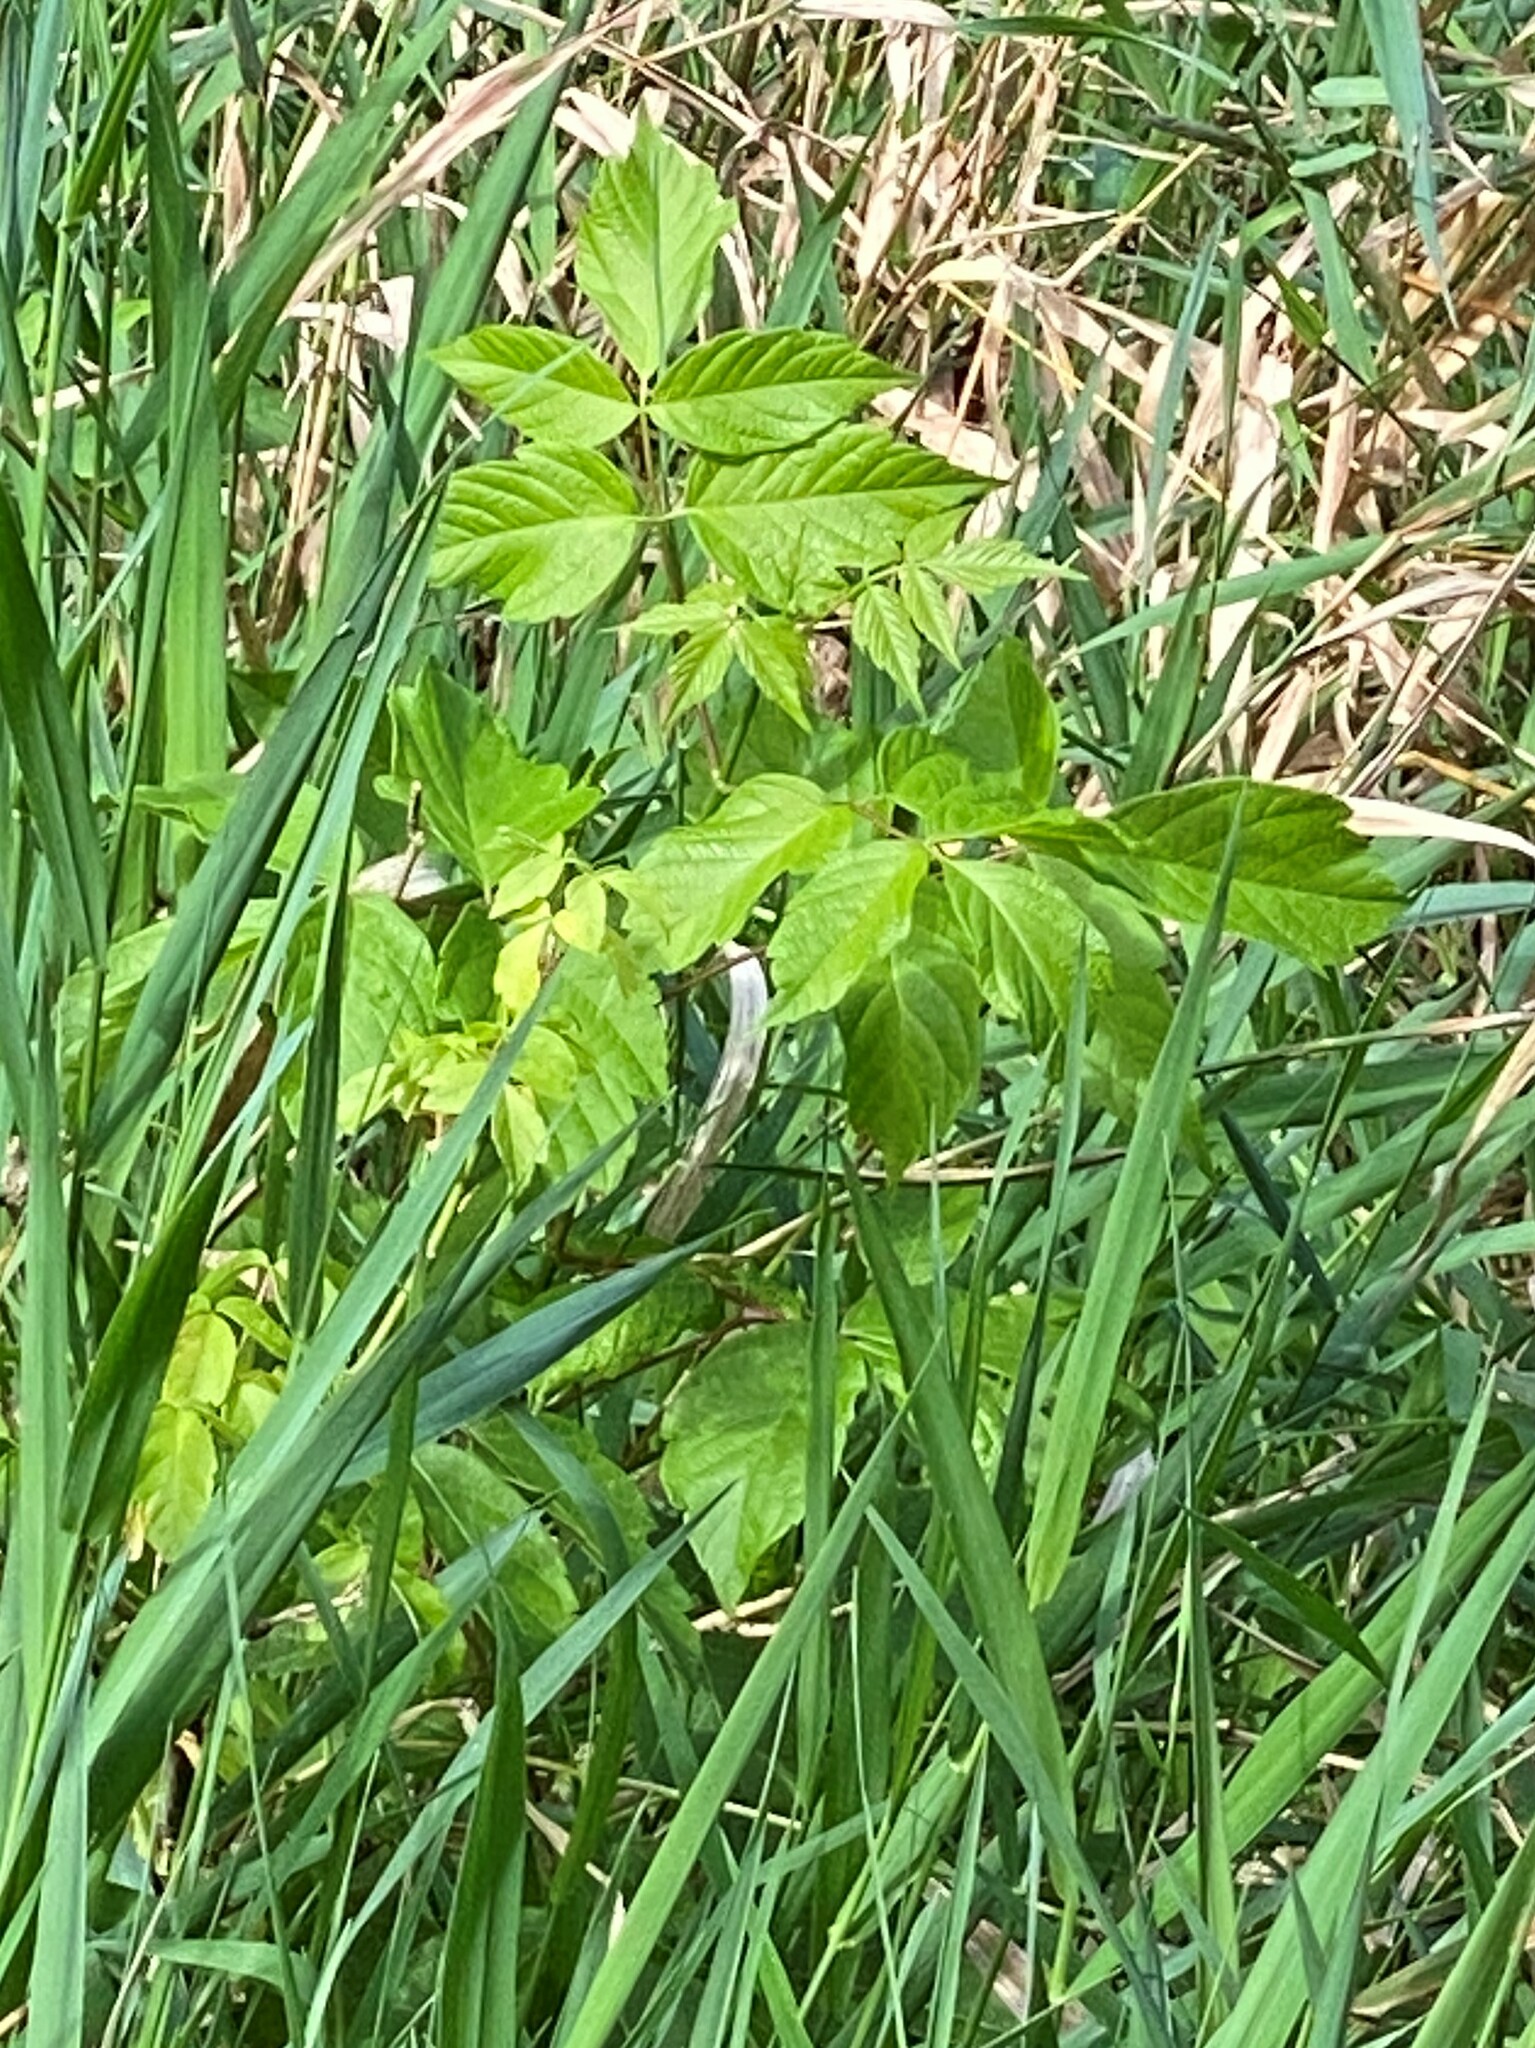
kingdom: Plantae
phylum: Tracheophyta
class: Magnoliopsida
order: Sapindales
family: Sapindaceae
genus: Acer
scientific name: Acer negundo
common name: Ashleaf maple
